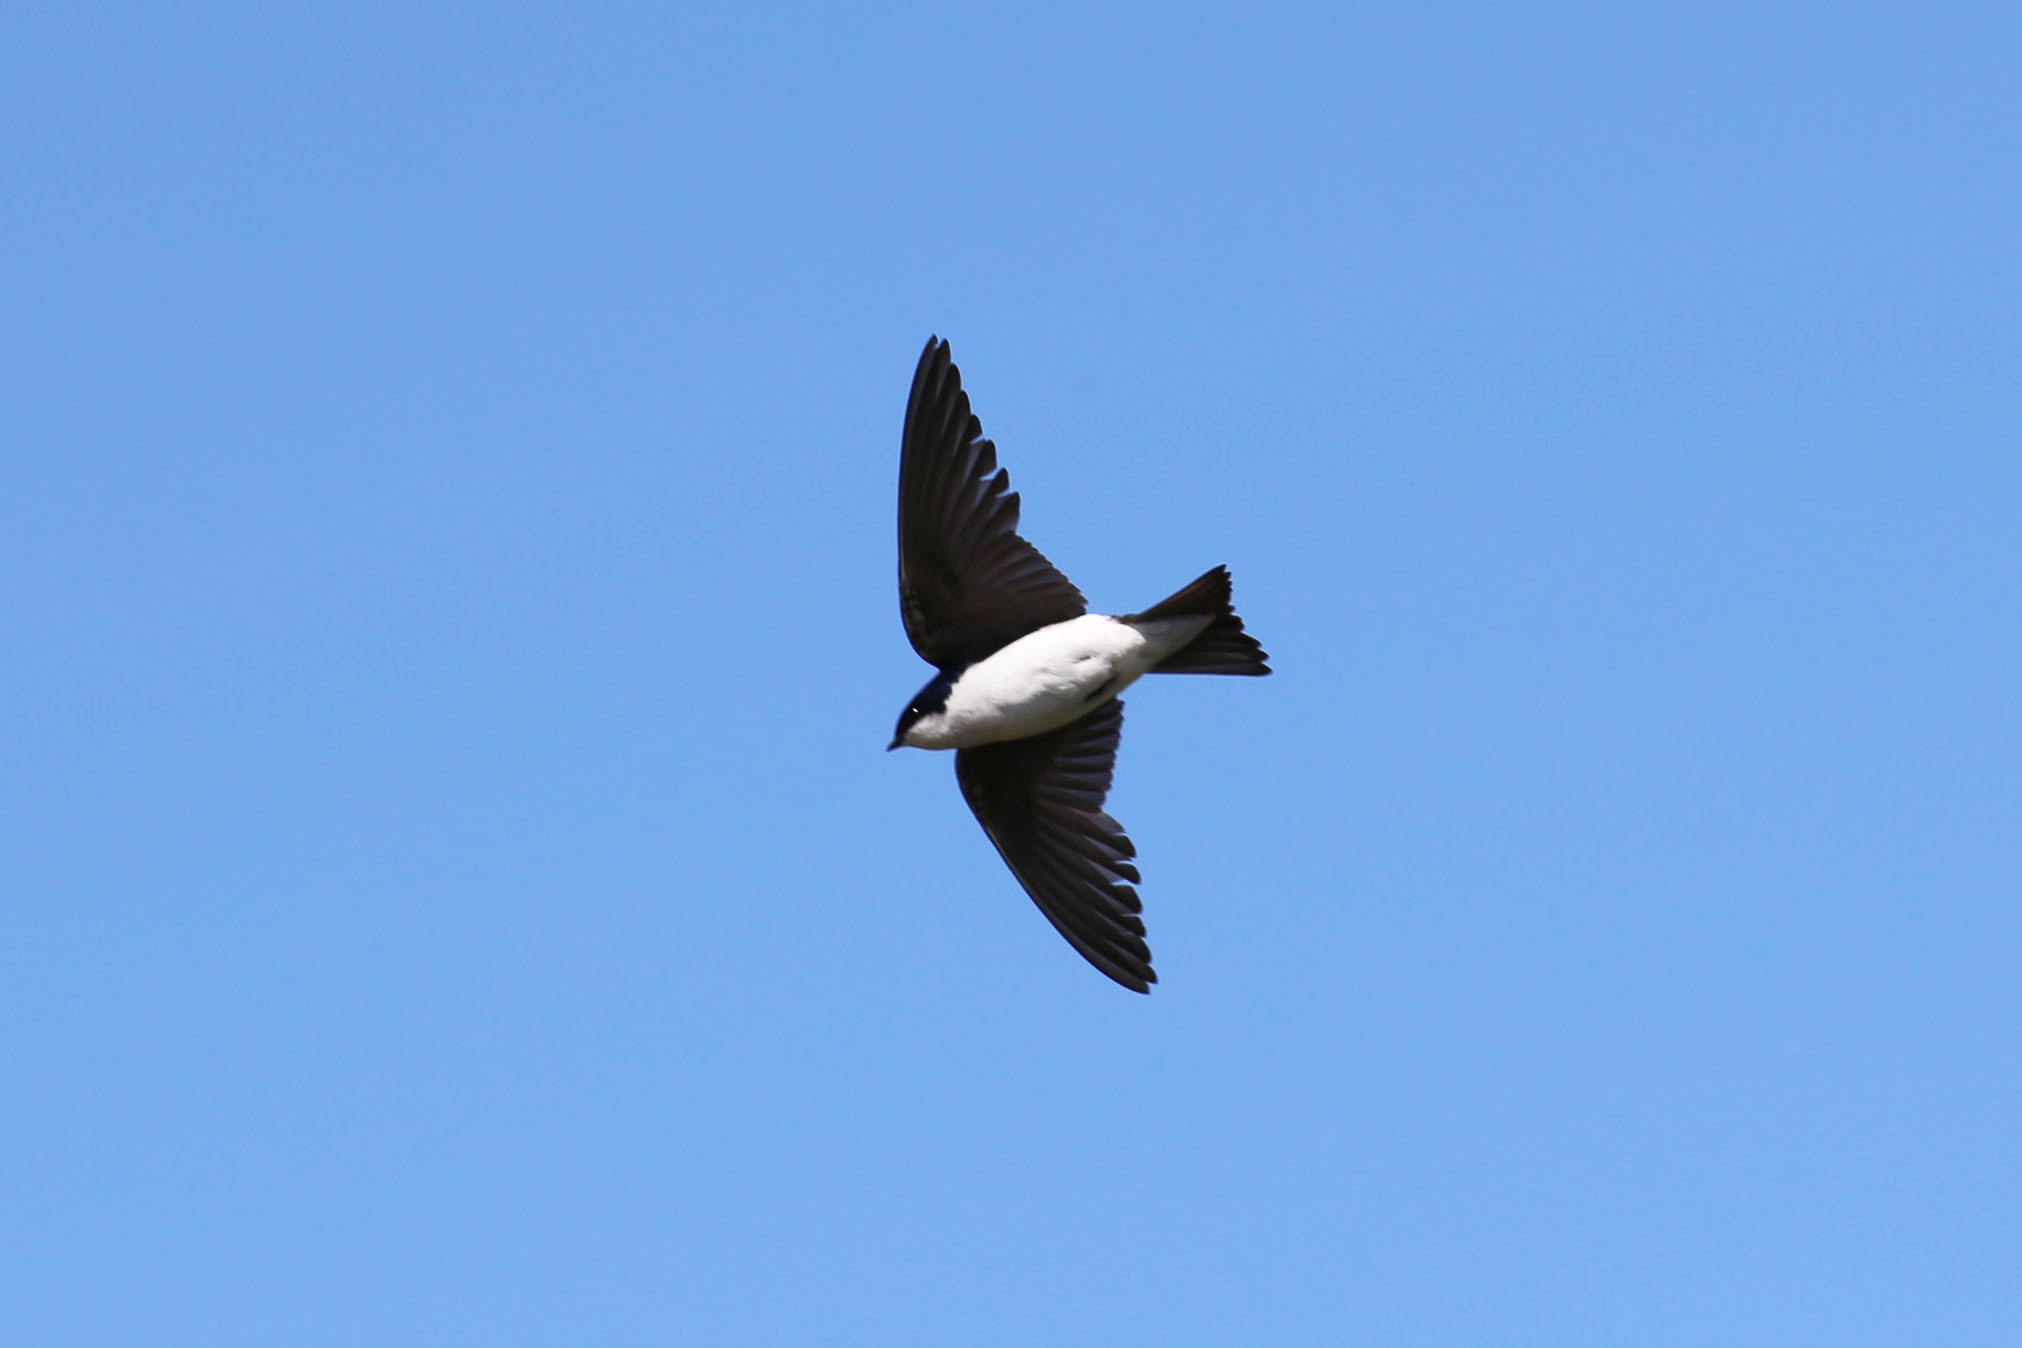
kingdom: Animalia
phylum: Chordata
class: Aves
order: Passeriformes
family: Hirundinidae
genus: Tachycineta
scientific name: Tachycineta bicolor
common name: Tree swallow
